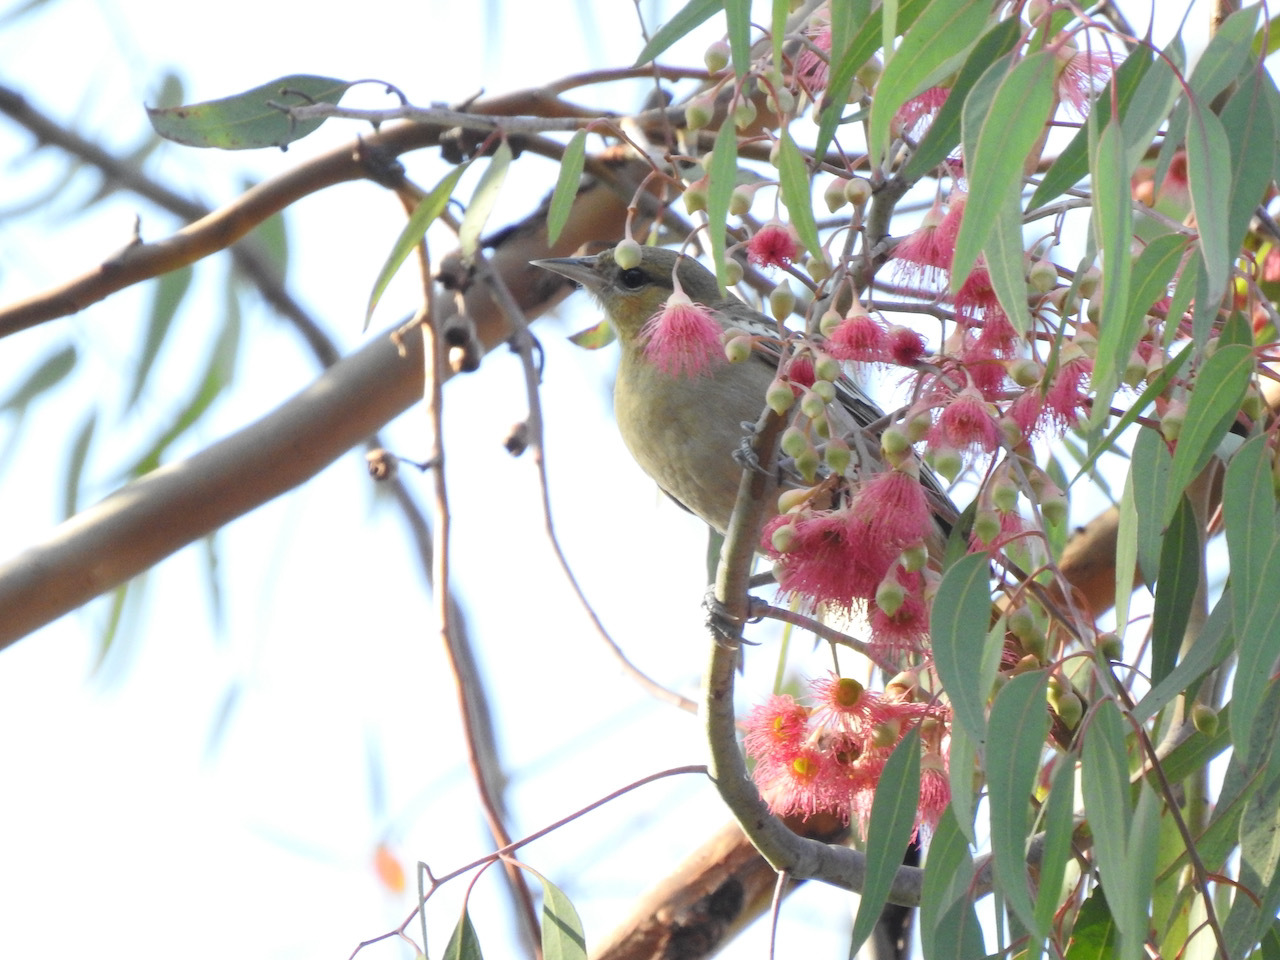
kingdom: Animalia
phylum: Chordata
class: Aves
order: Passeriformes
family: Icteridae
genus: Icterus
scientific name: Icterus bullockii
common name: Bullock's oriole
